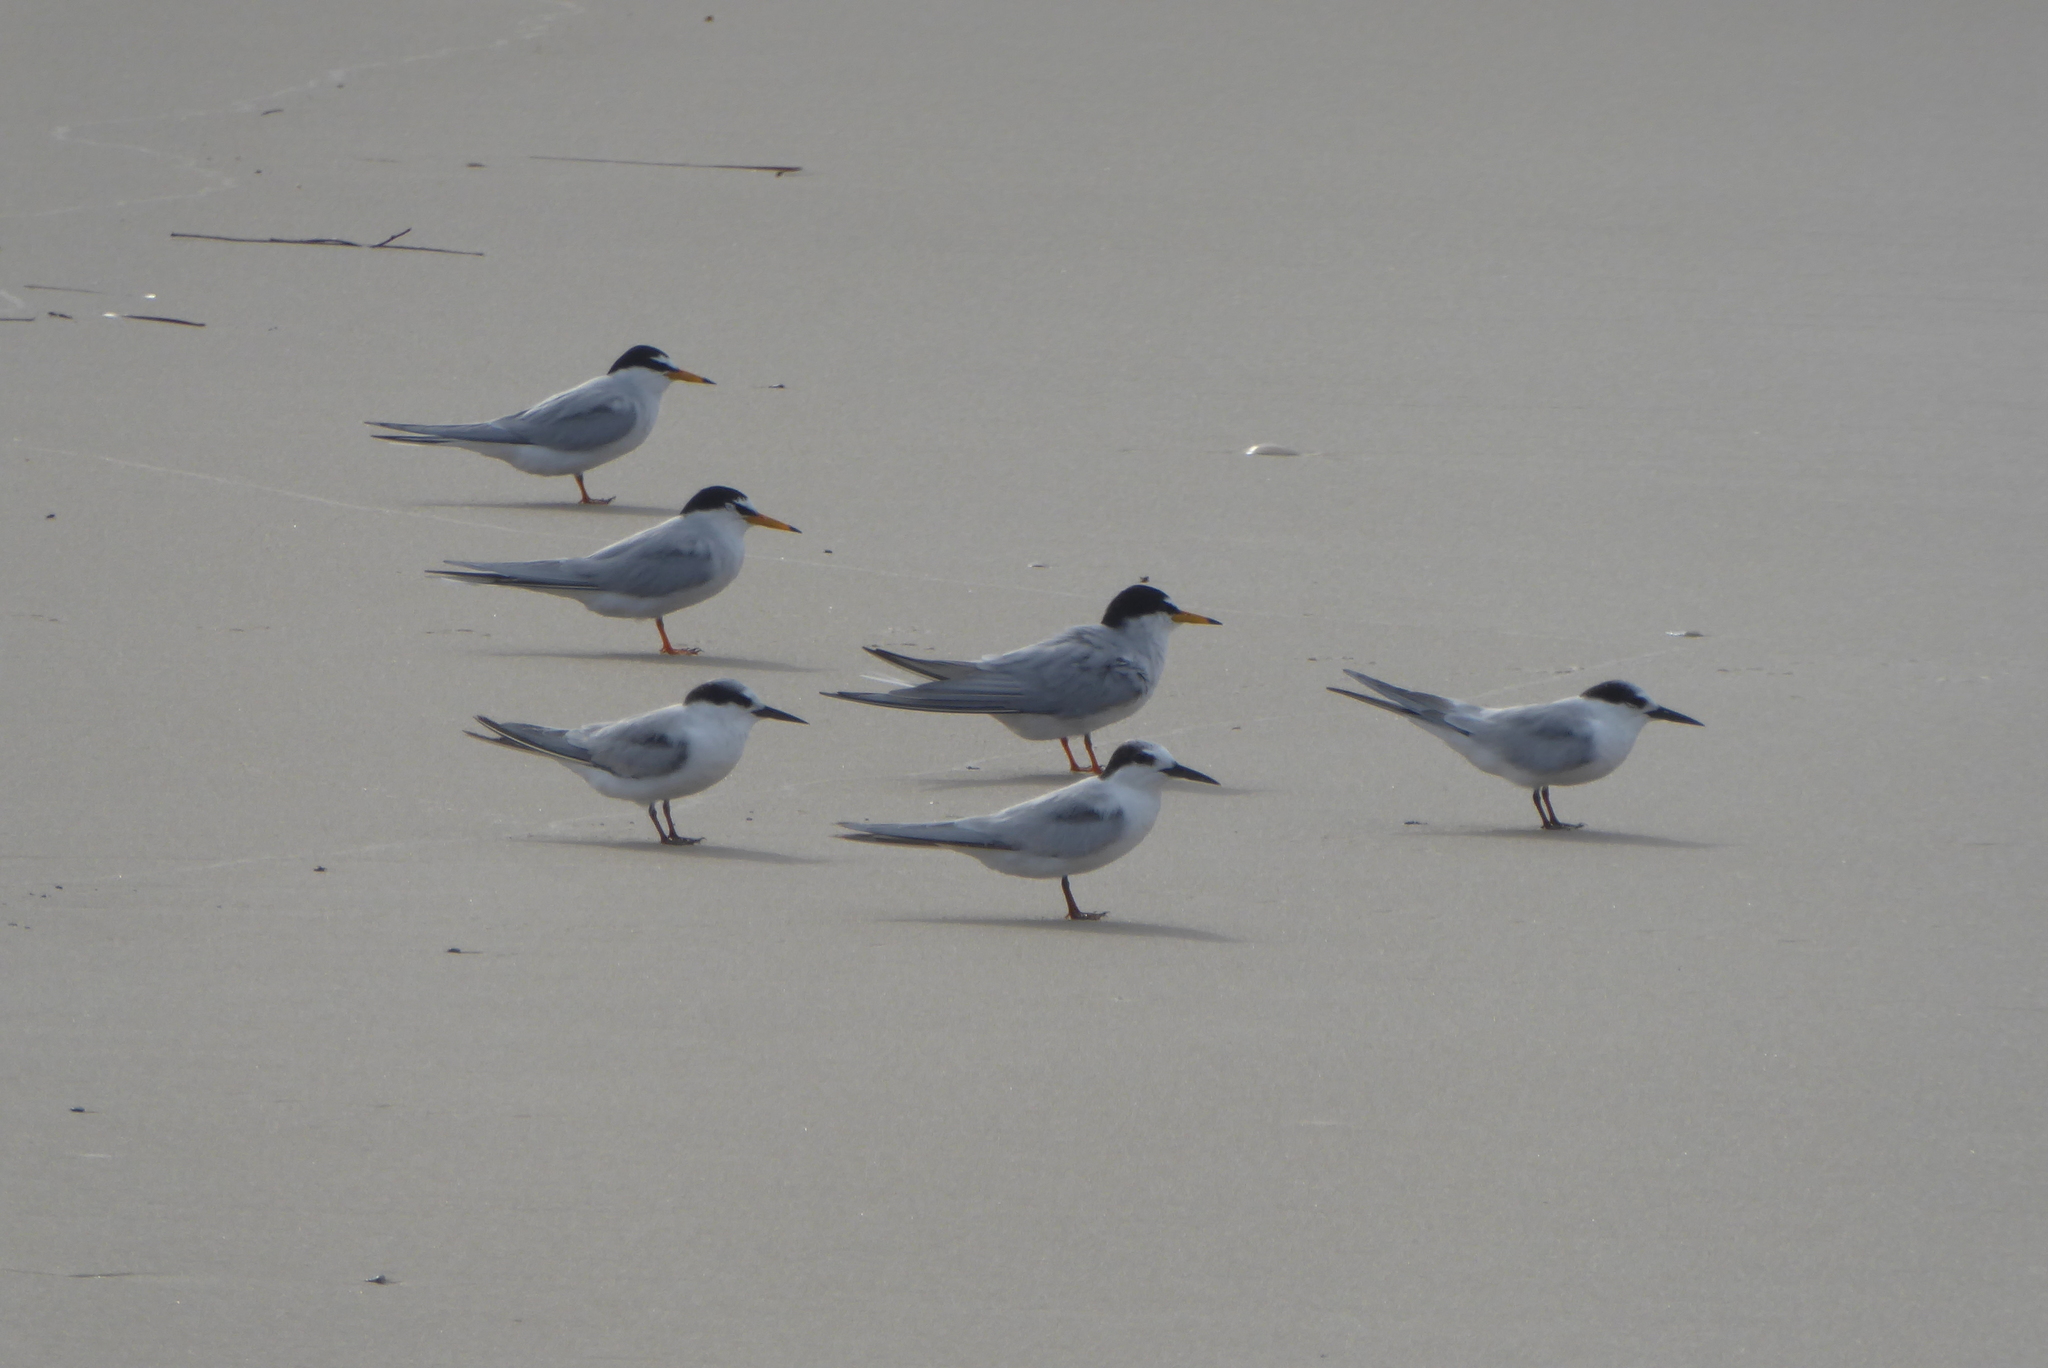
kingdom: Animalia
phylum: Chordata
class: Aves
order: Charadriiformes
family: Laridae
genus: Sternula
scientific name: Sternula albifrons
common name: Little tern
